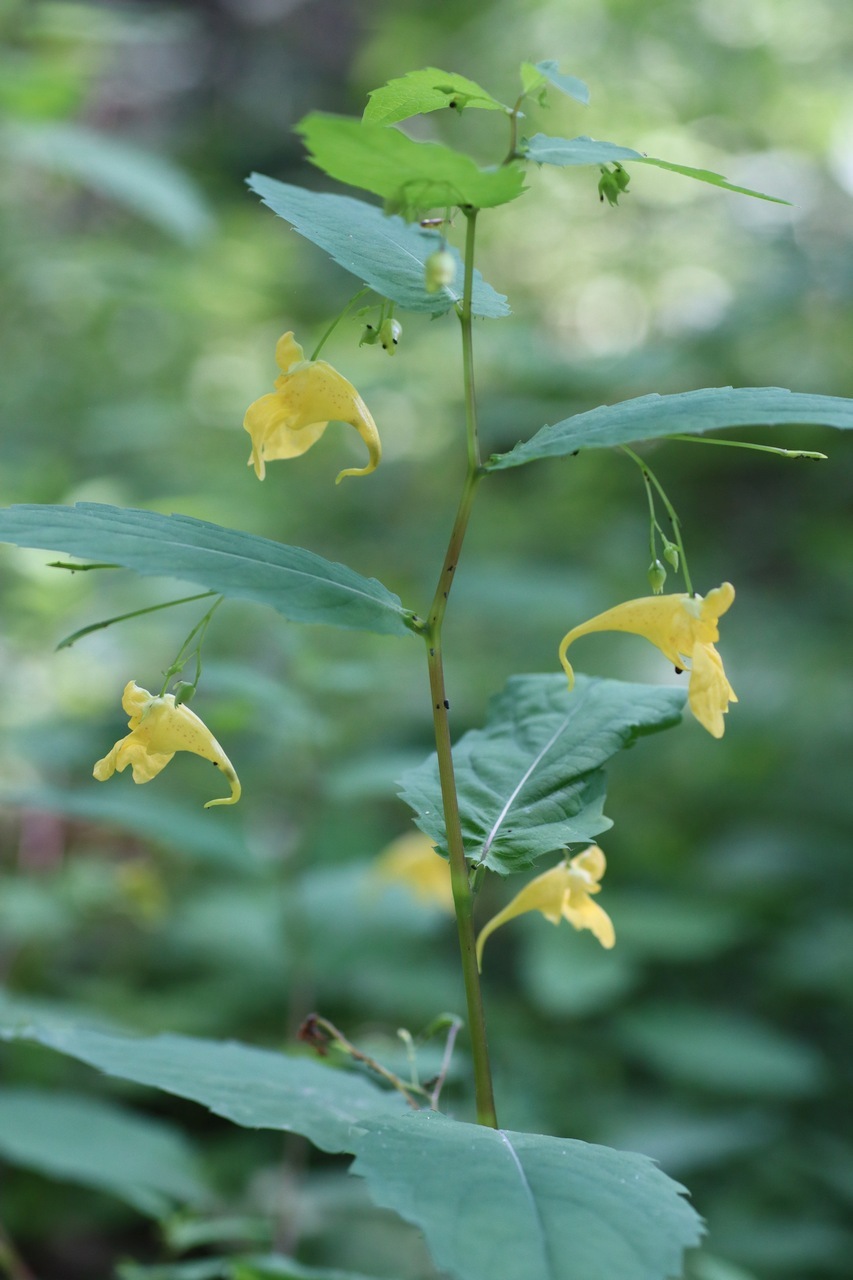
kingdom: Plantae
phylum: Tracheophyta
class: Magnoliopsida
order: Ericales
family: Balsaminaceae
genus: Impatiens
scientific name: Impatiens noli-tangere
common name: Touch-me-not balsam
